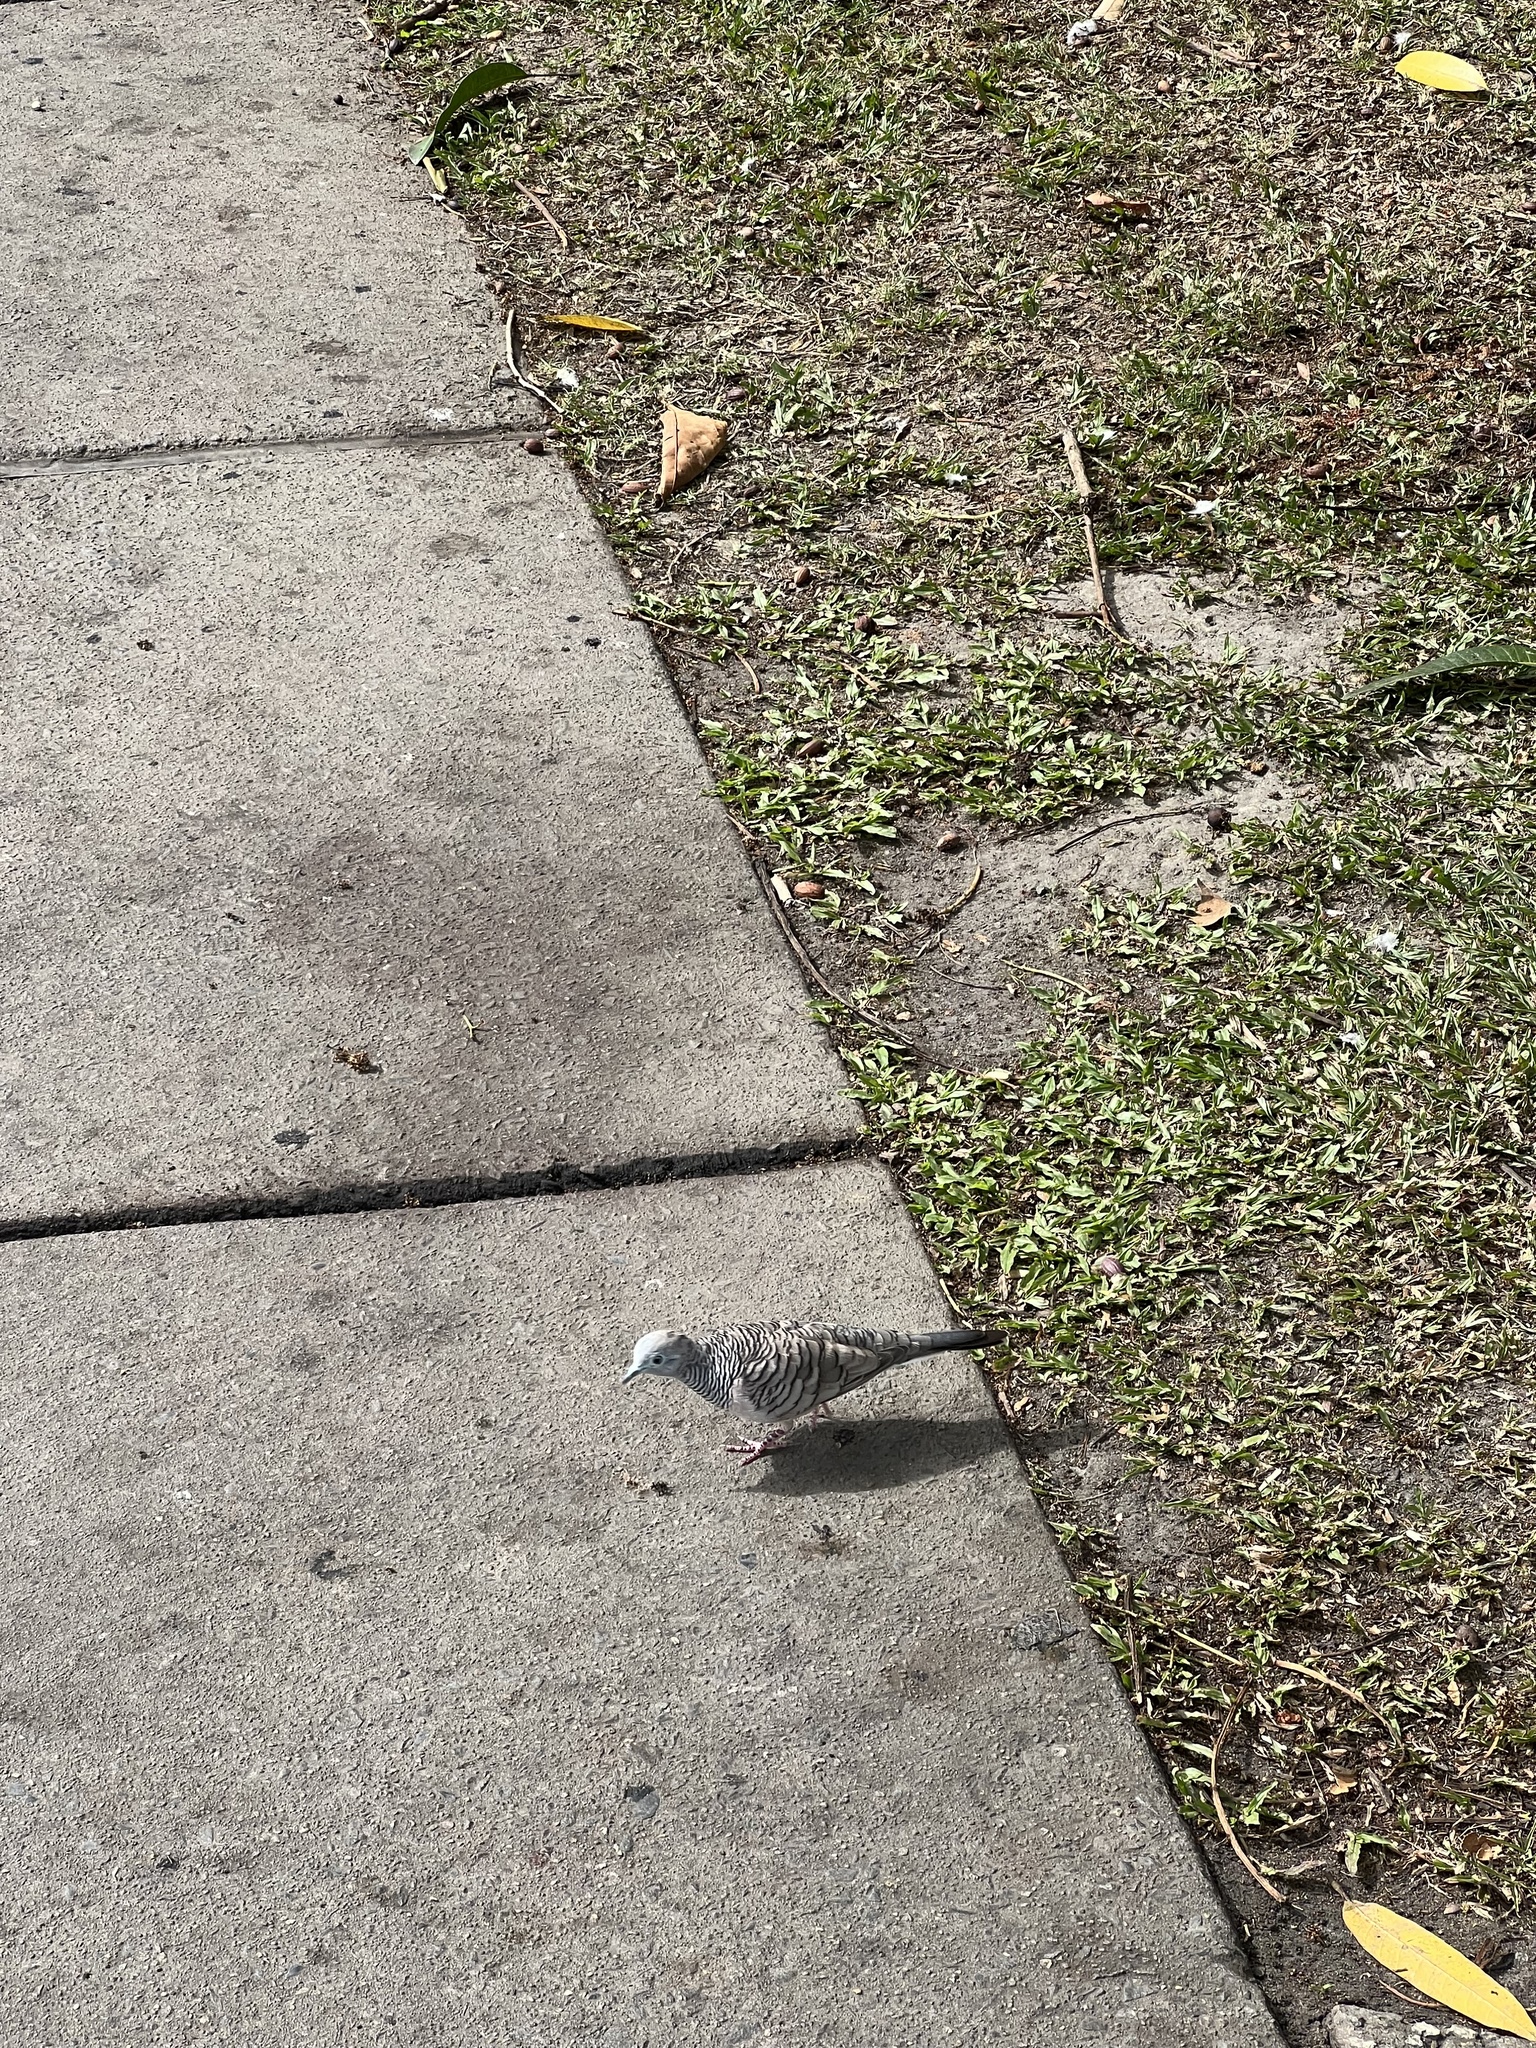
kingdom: Animalia
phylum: Chordata
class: Aves
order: Columbiformes
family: Columbidae
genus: Geopelia
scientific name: Geopelia placida
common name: Peaceful dove
